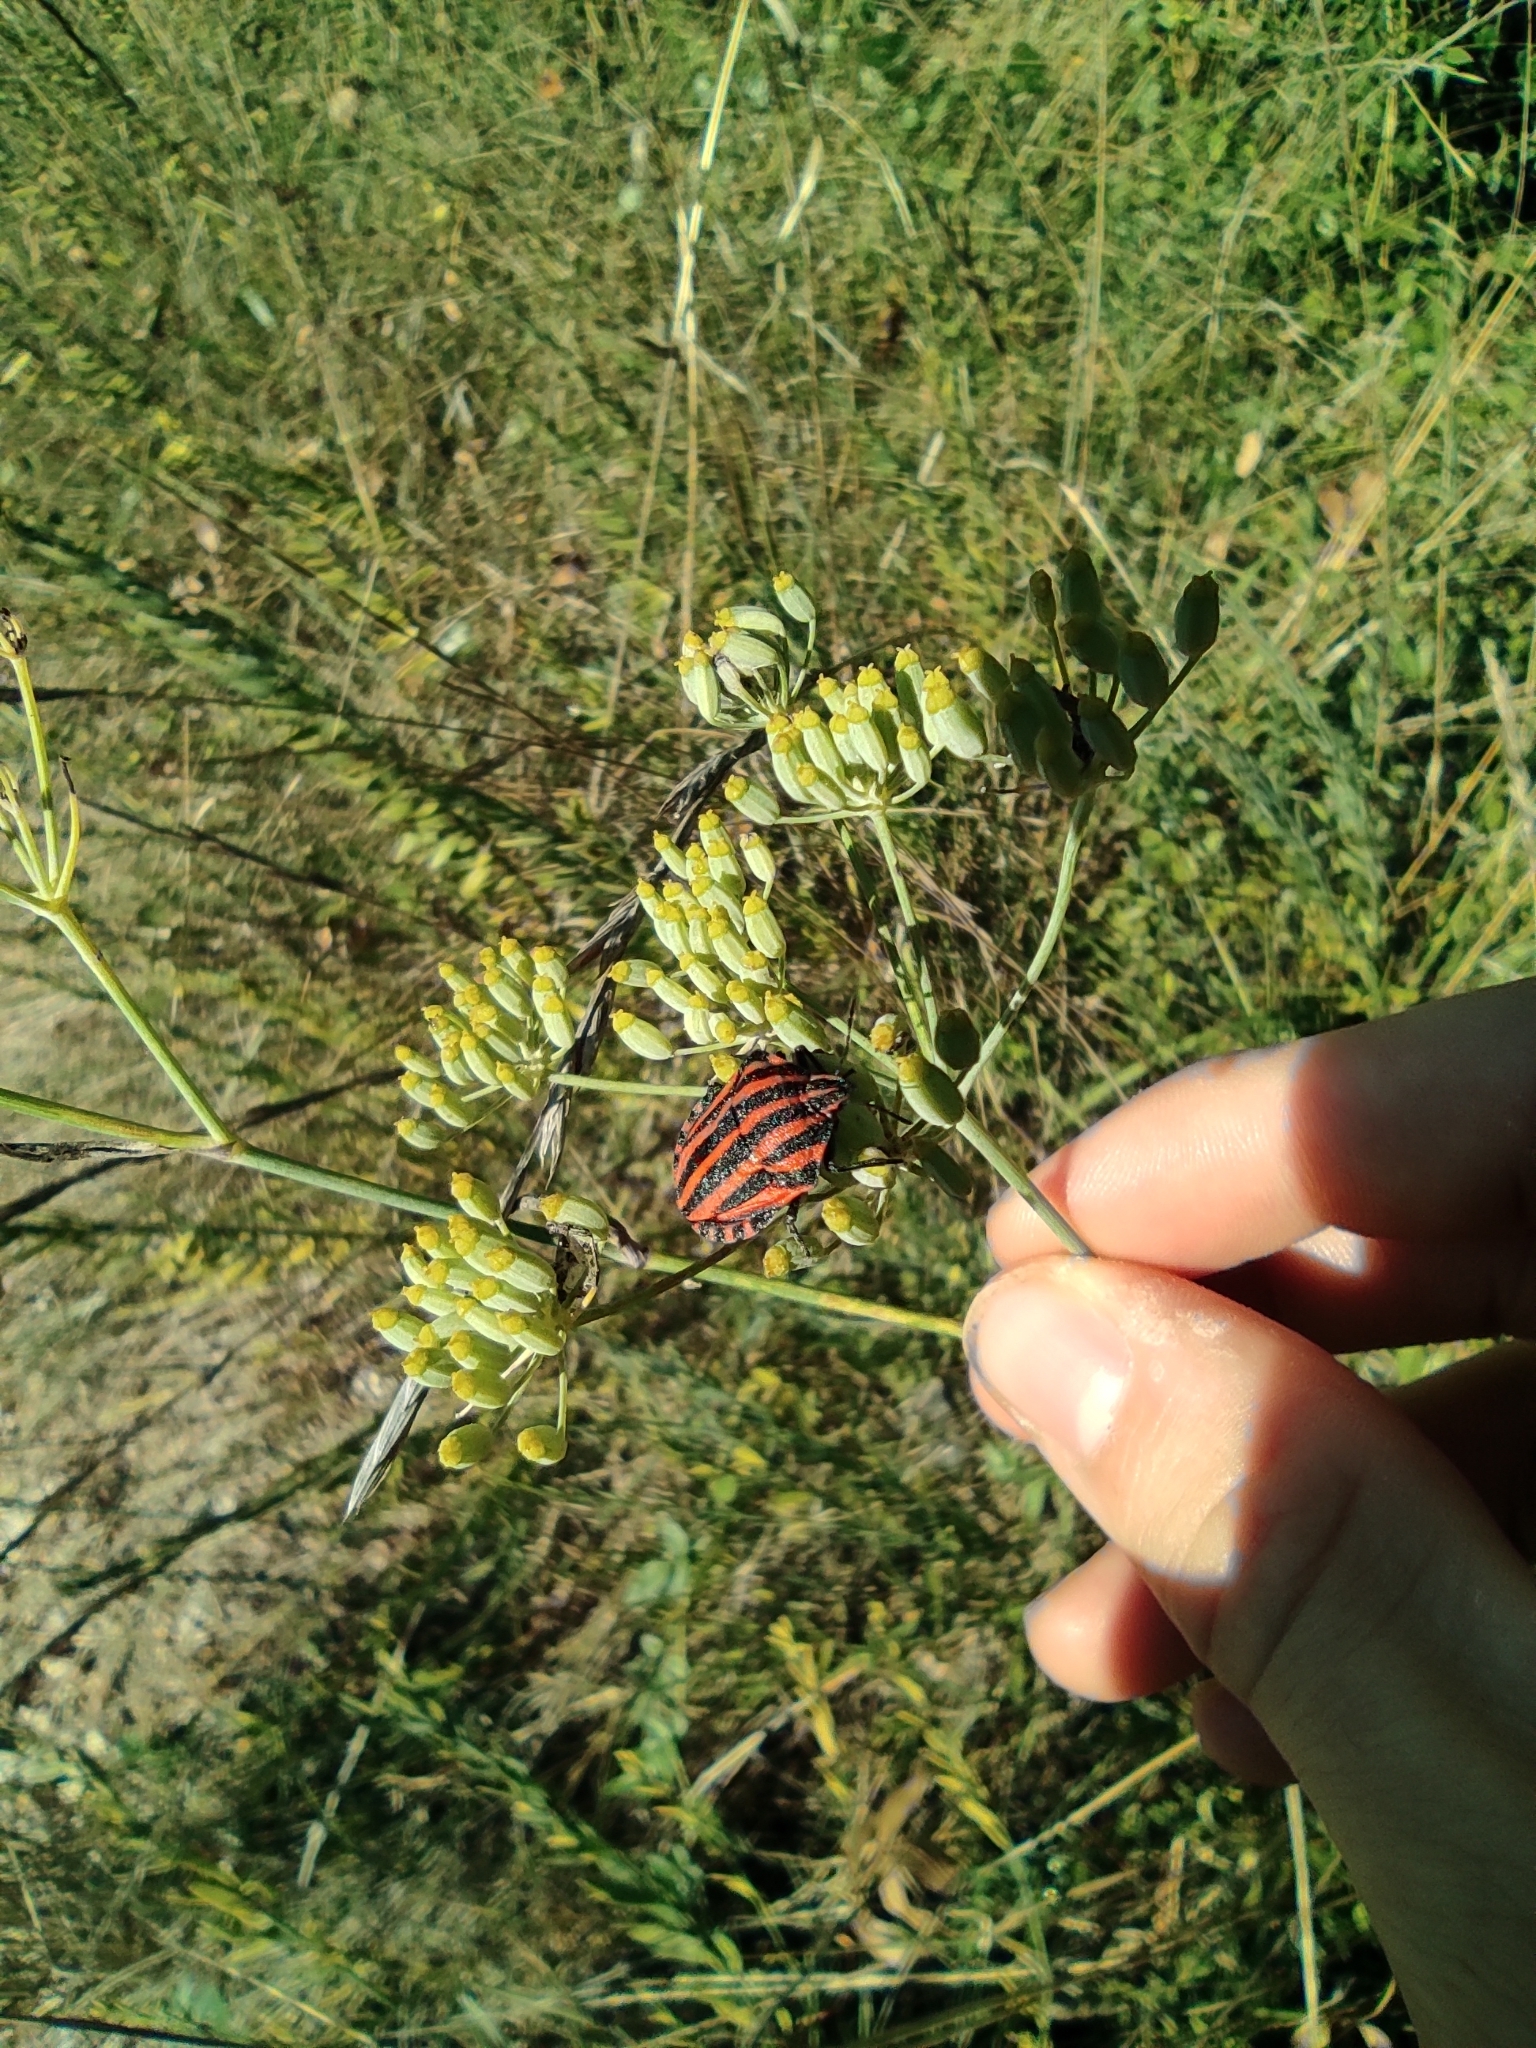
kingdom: Plantae
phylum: Tracheophyta
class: Magnoliopsida
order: Apiales
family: Apiaceae
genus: Foeniculum
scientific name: Foeniculum vulgare
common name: Fennel
